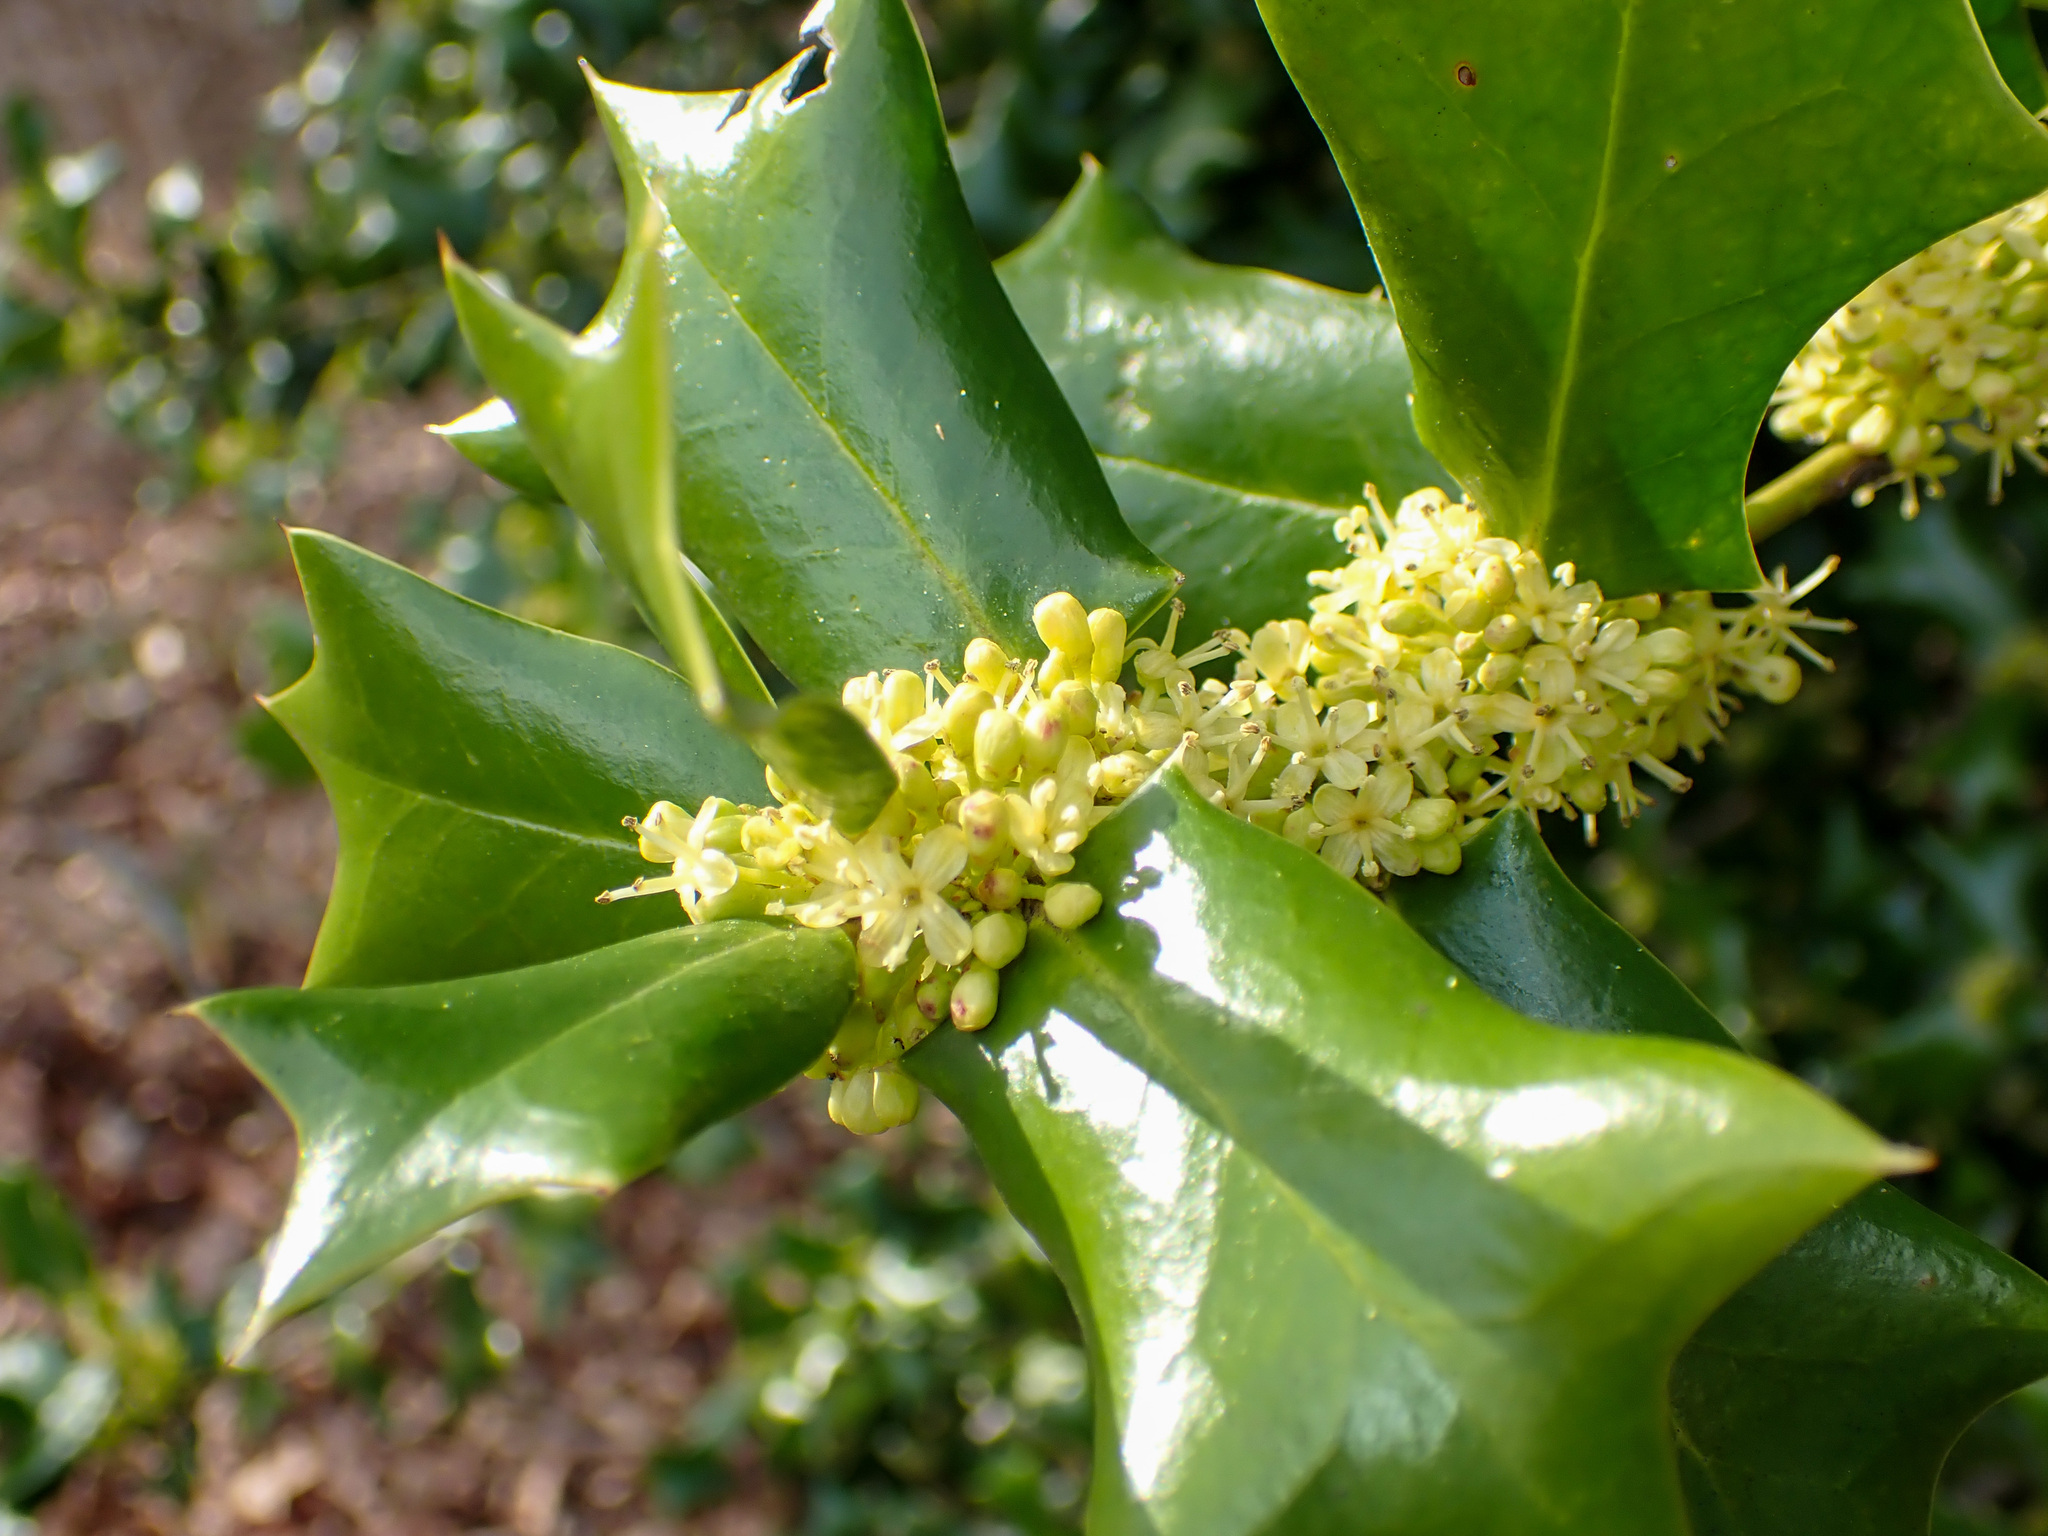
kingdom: Plantae
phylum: Tracheophyta
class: Magnoliopsida
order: Aquifoliales
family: Aquifoliaceae
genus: Ilex
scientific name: Ilex cornuta
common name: Chinese holly
